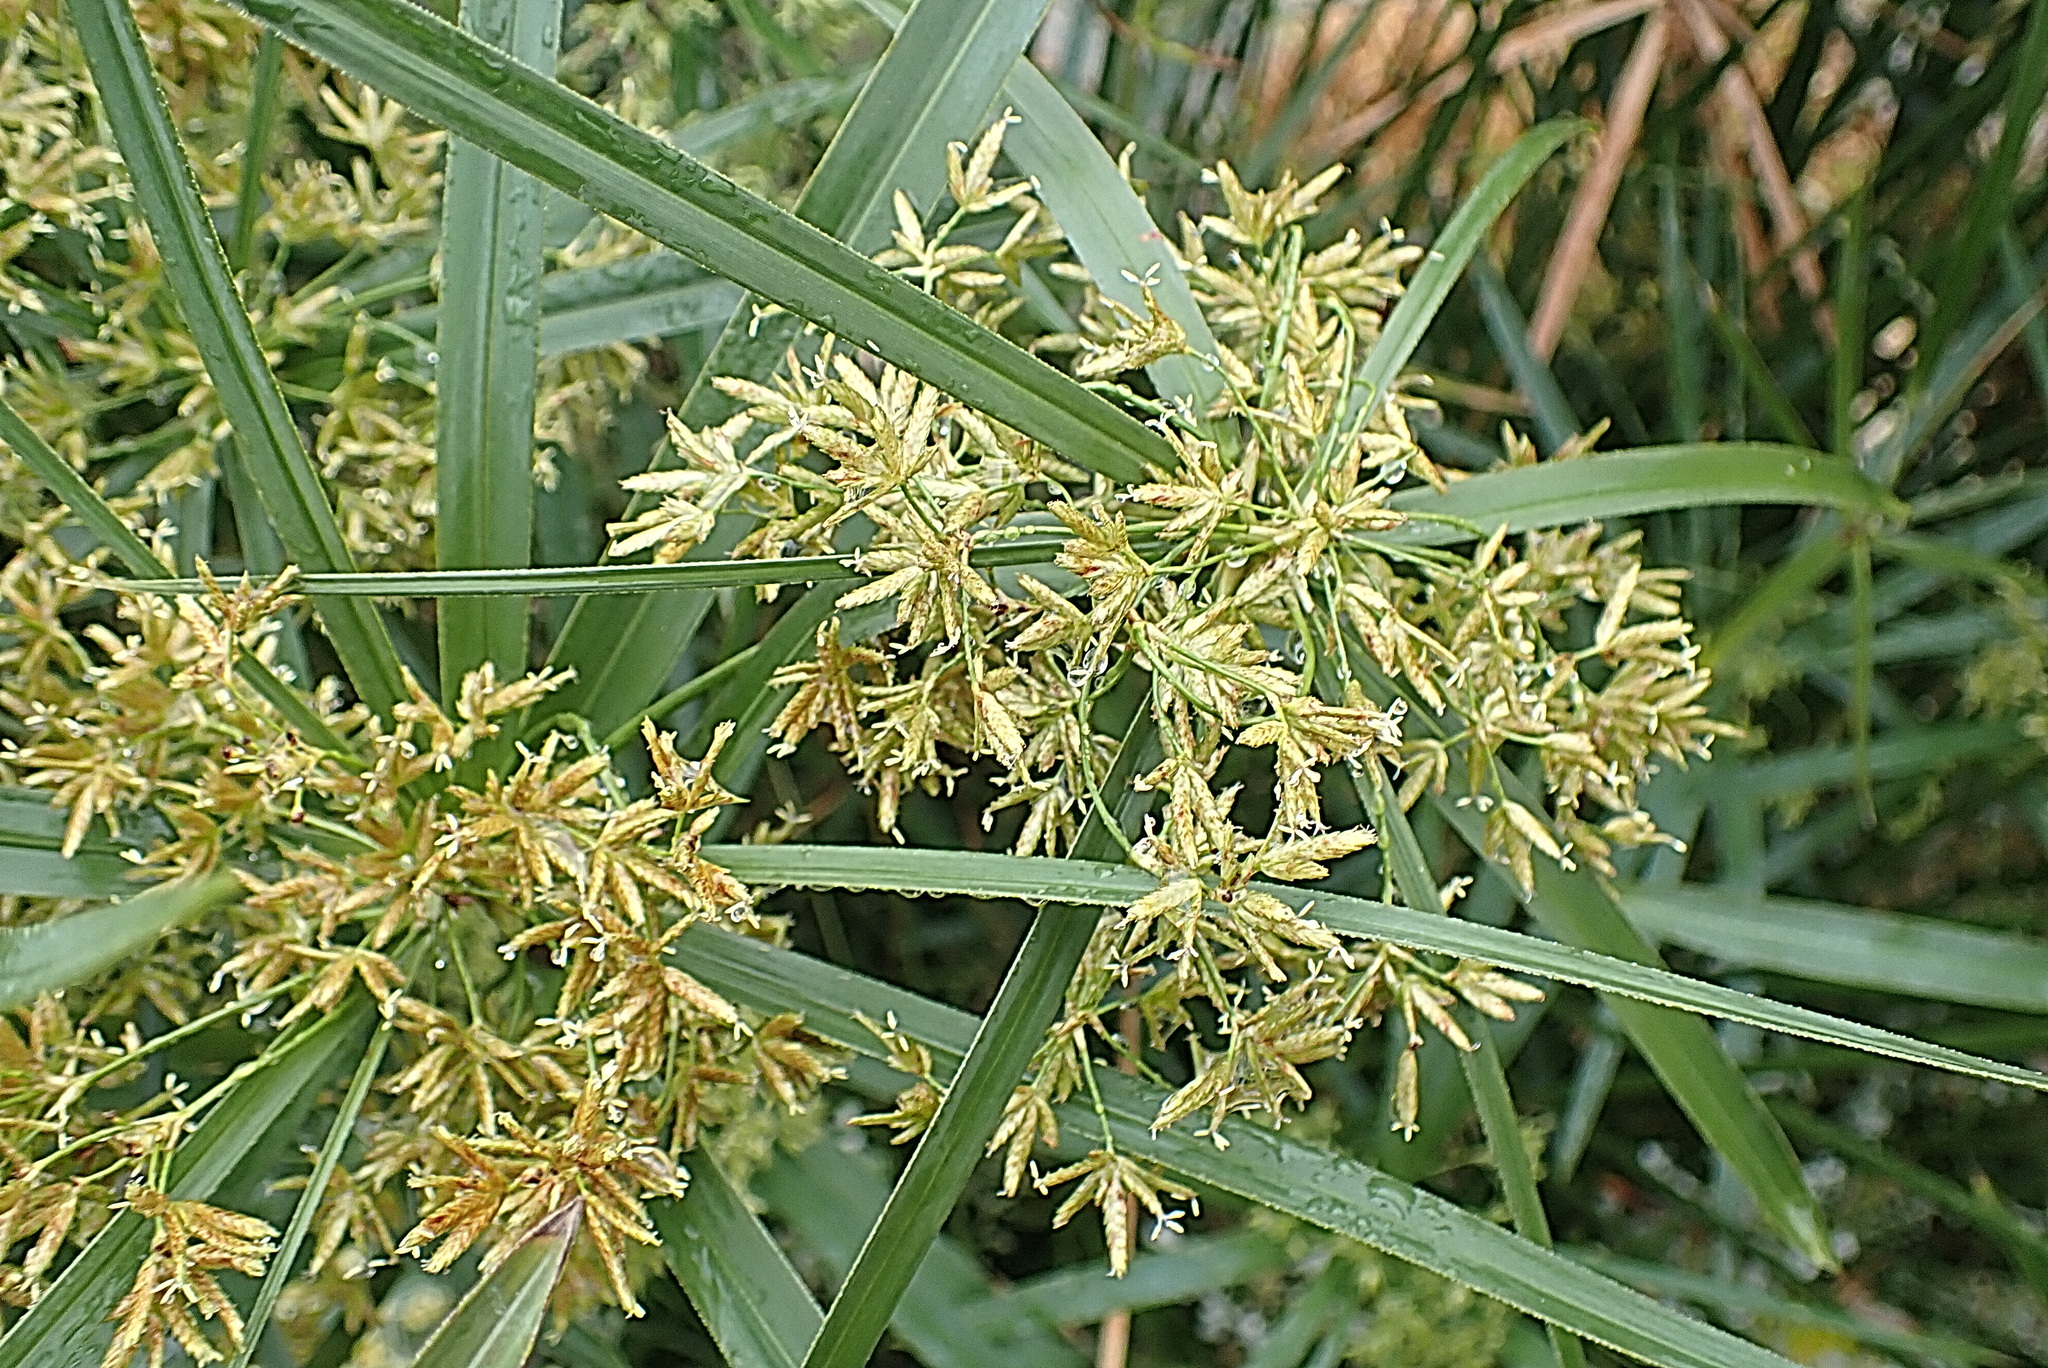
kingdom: Plantae
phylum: Tracheophyta
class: Liliopsida
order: Poales
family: Cyperaceae
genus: Cyperus
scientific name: Cyperus textilis
